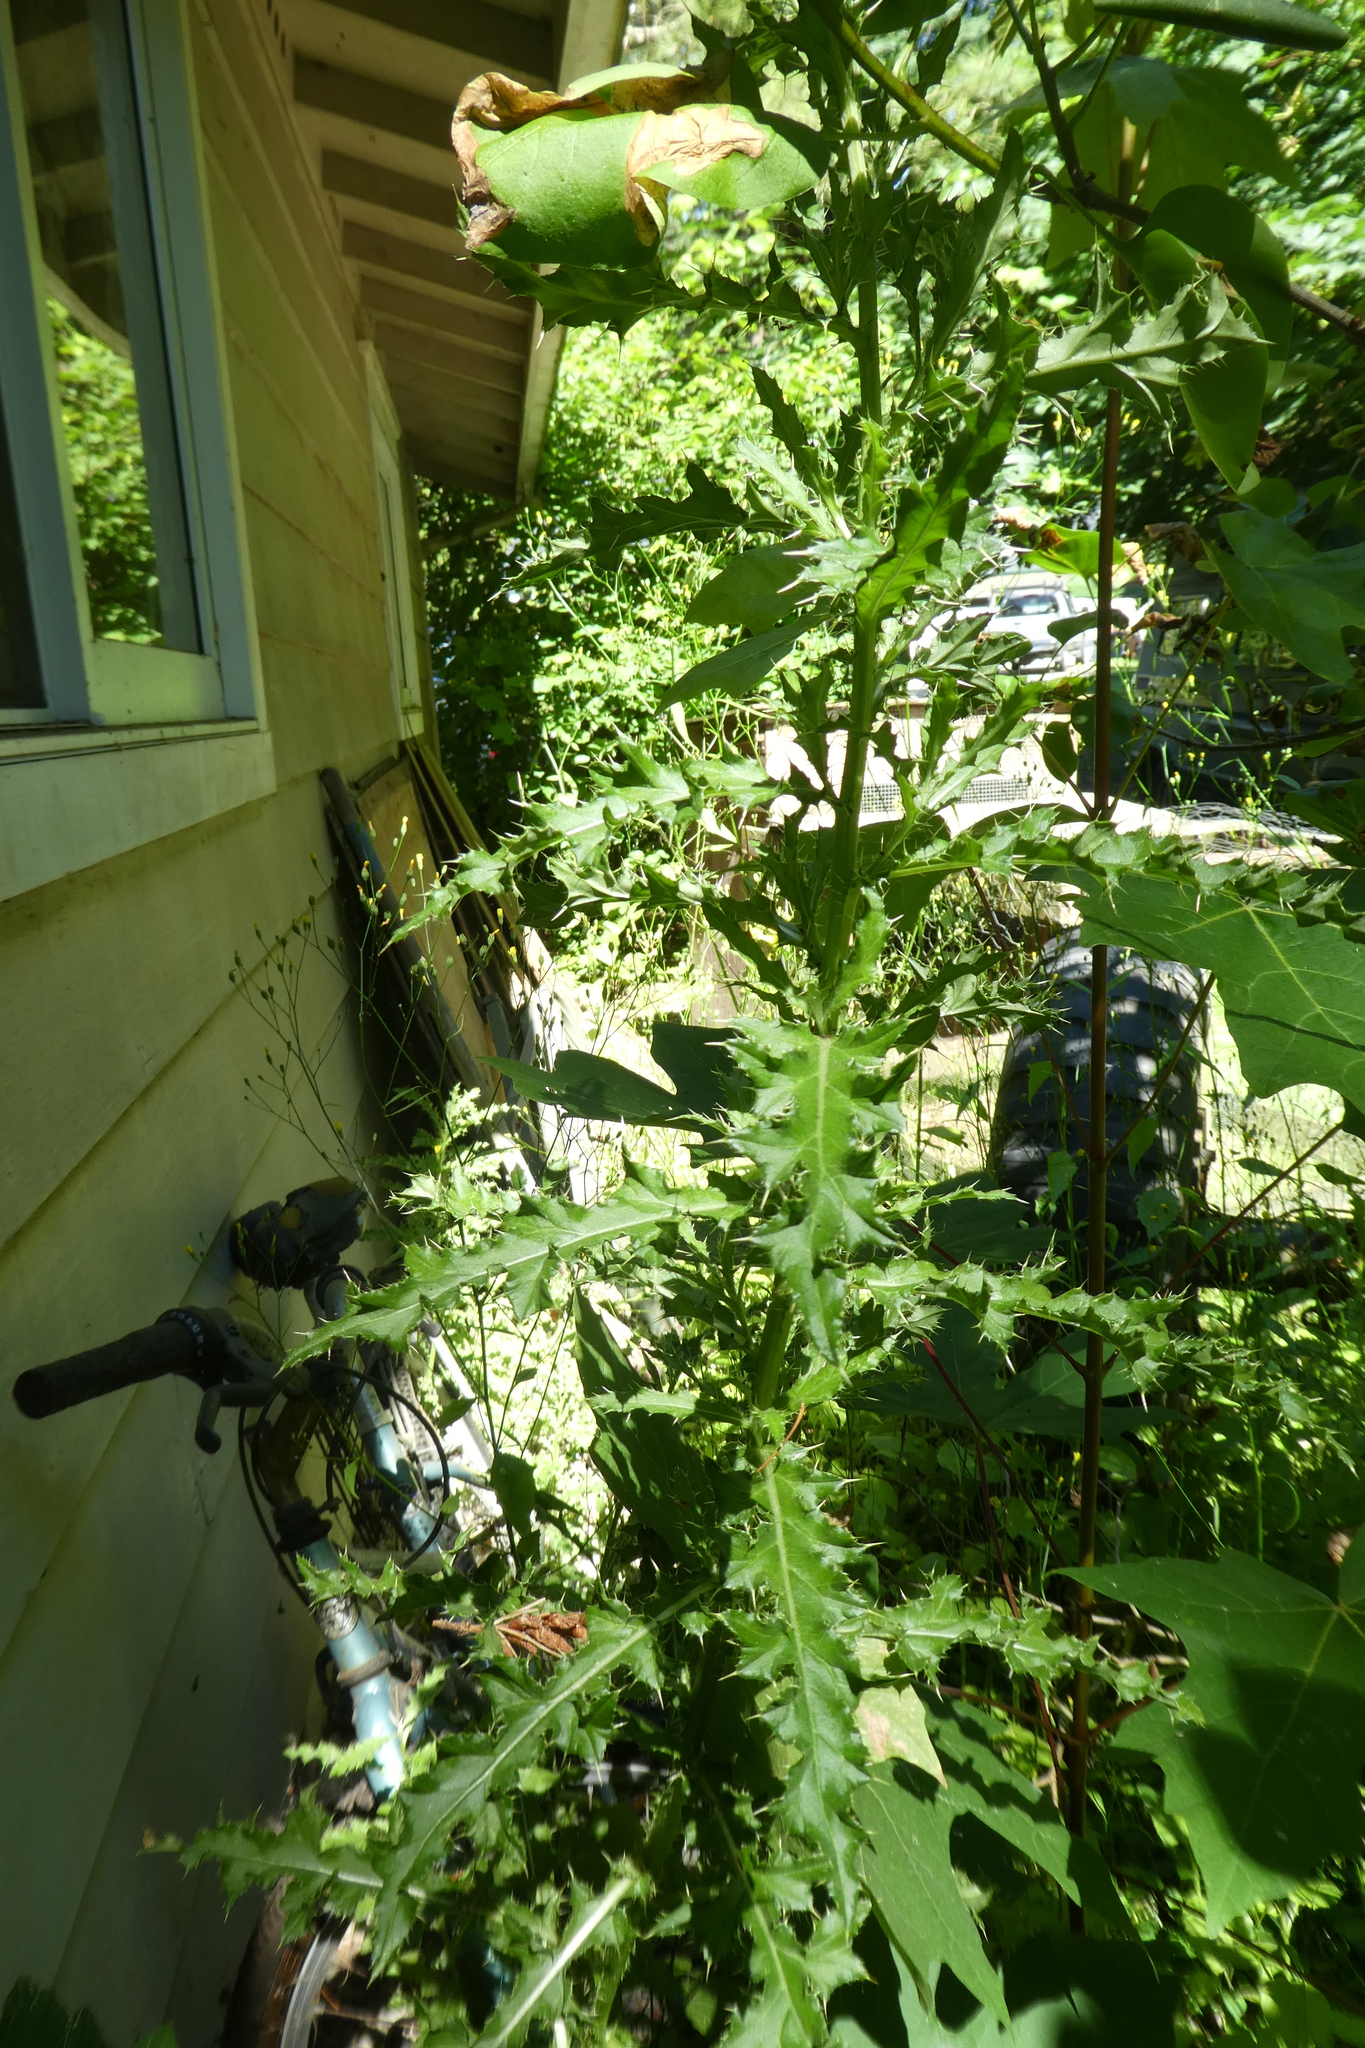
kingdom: Plantae
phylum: Tracheophyta
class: Magnoliopsida
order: Asterales
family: Asteraceae
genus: Cirsium
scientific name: Cirsium arvense
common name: Creeping thistle
